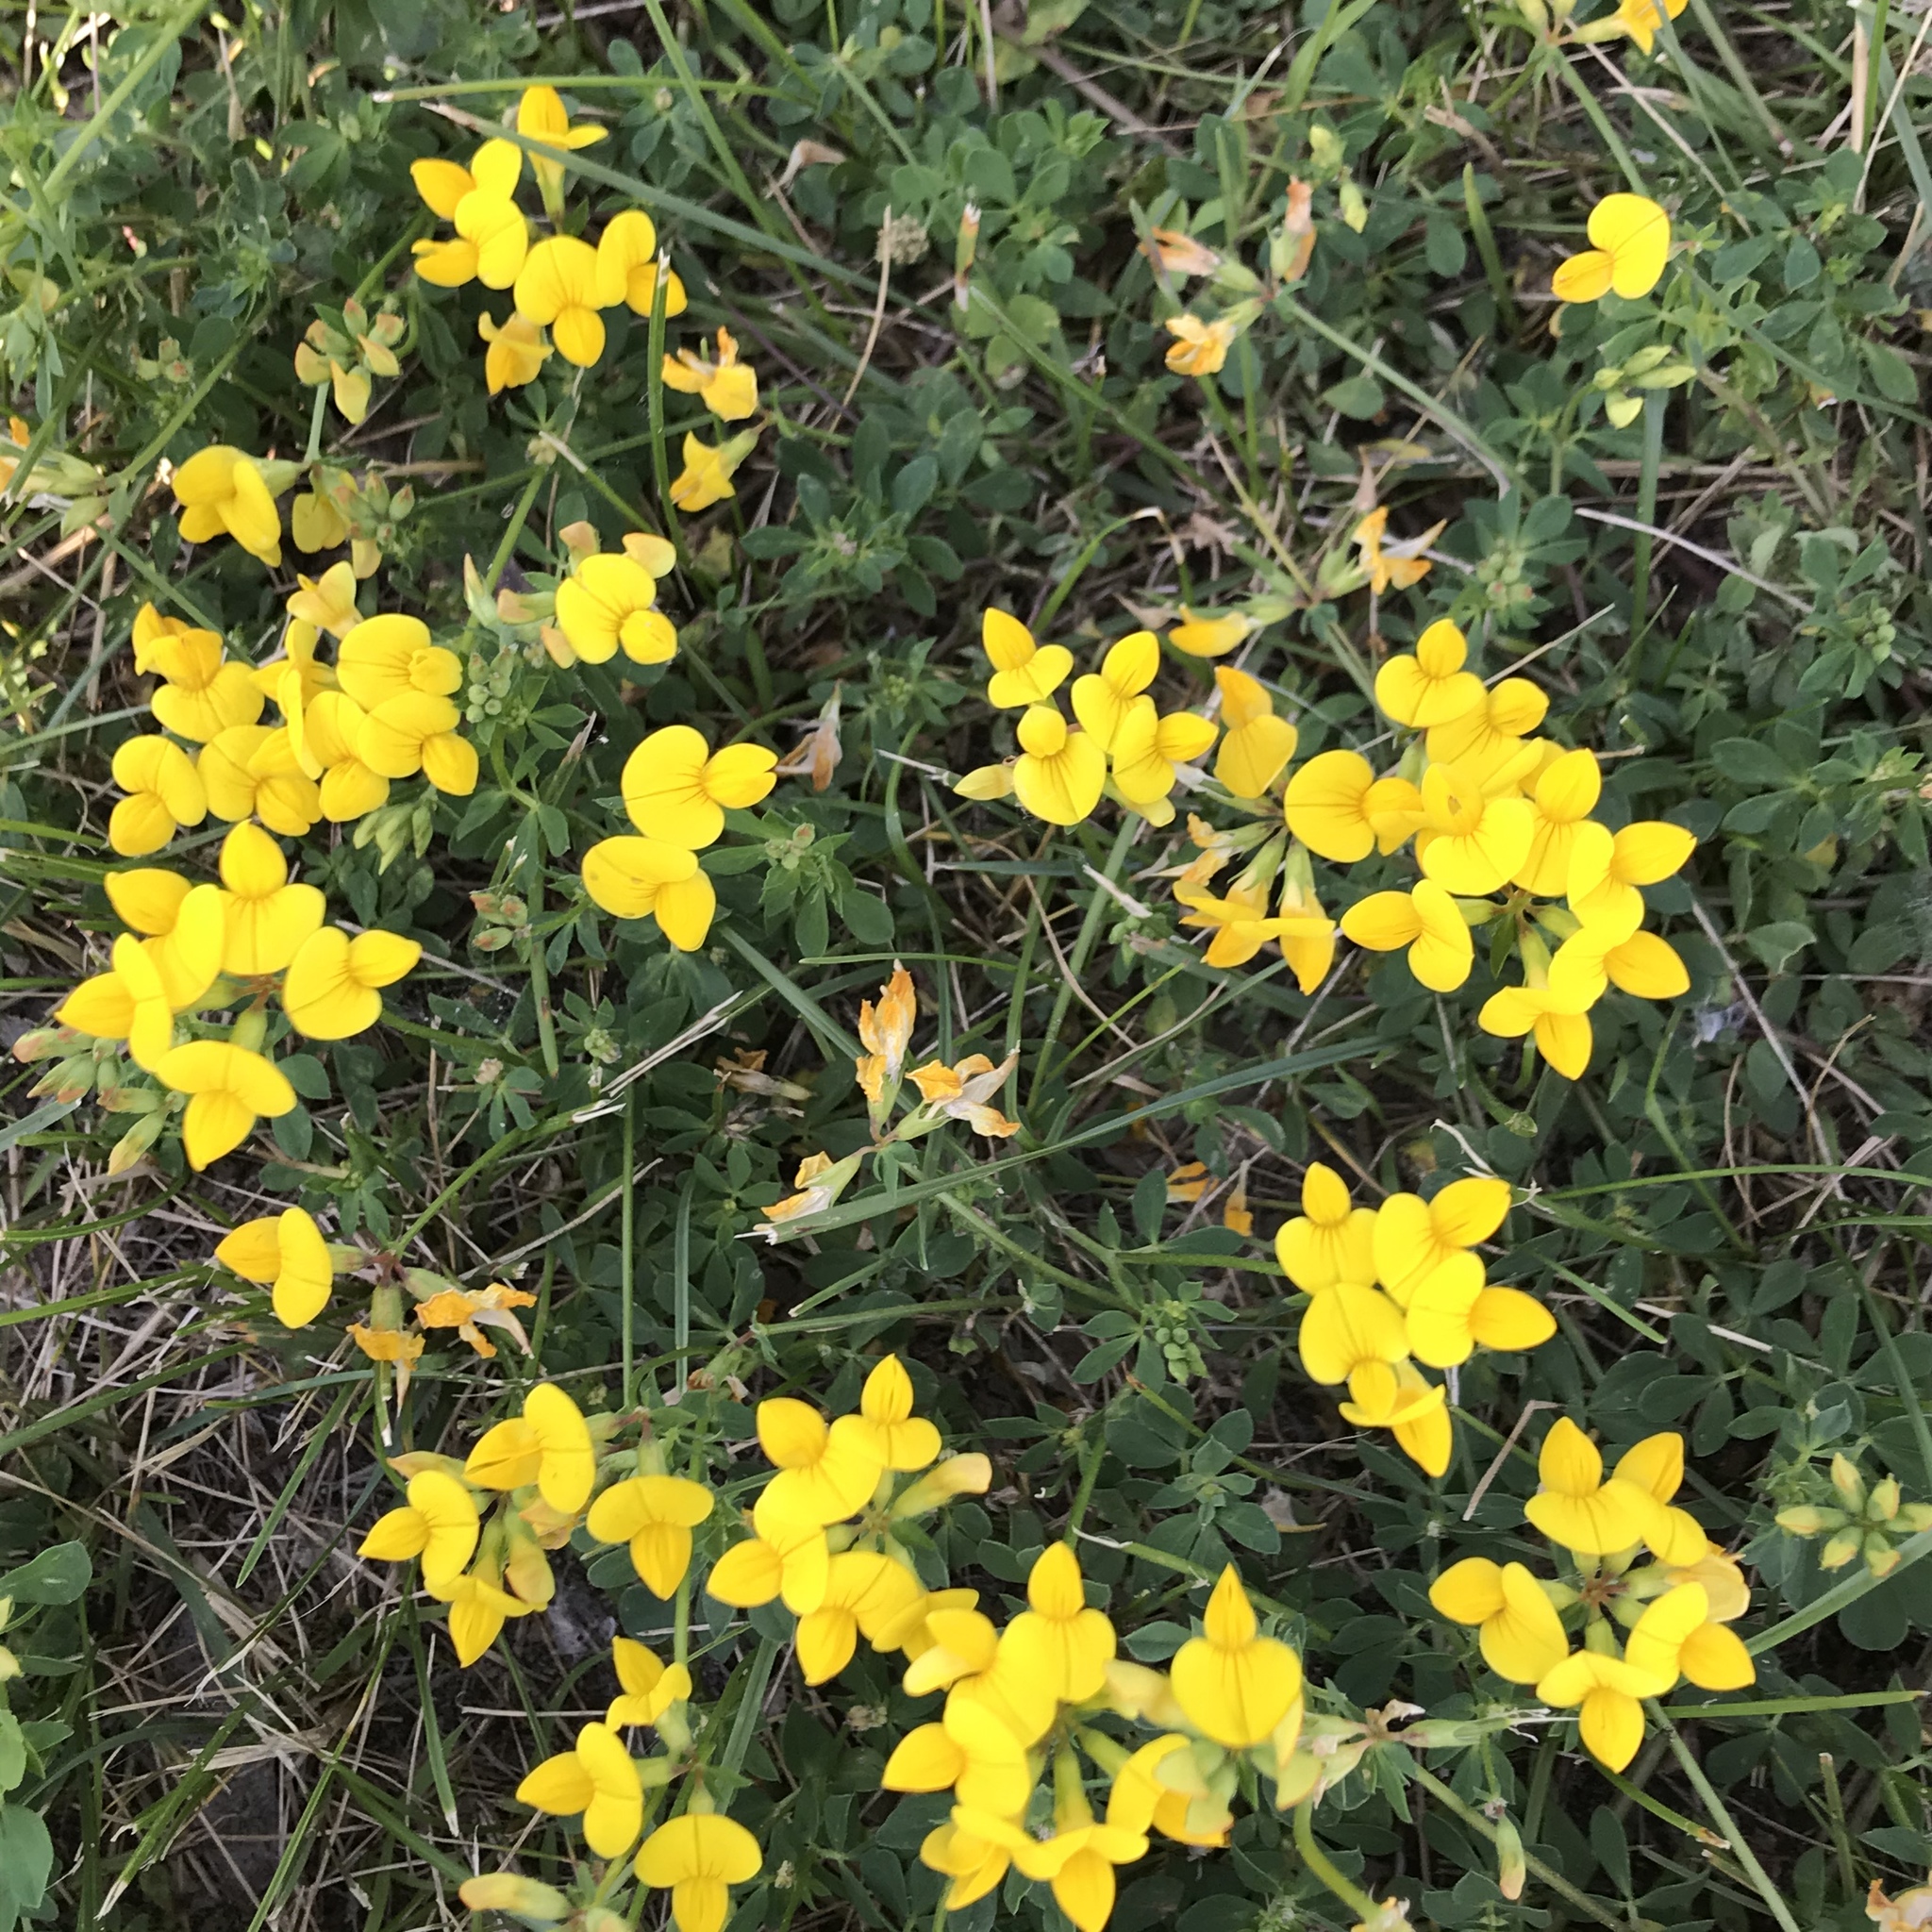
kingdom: Plantae
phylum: Tracheophyta
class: Magnoliopsida
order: Fabales
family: Fabaceae
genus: Lotus
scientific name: Lotus corniculatus
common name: Common bird's-foot-trefoil
